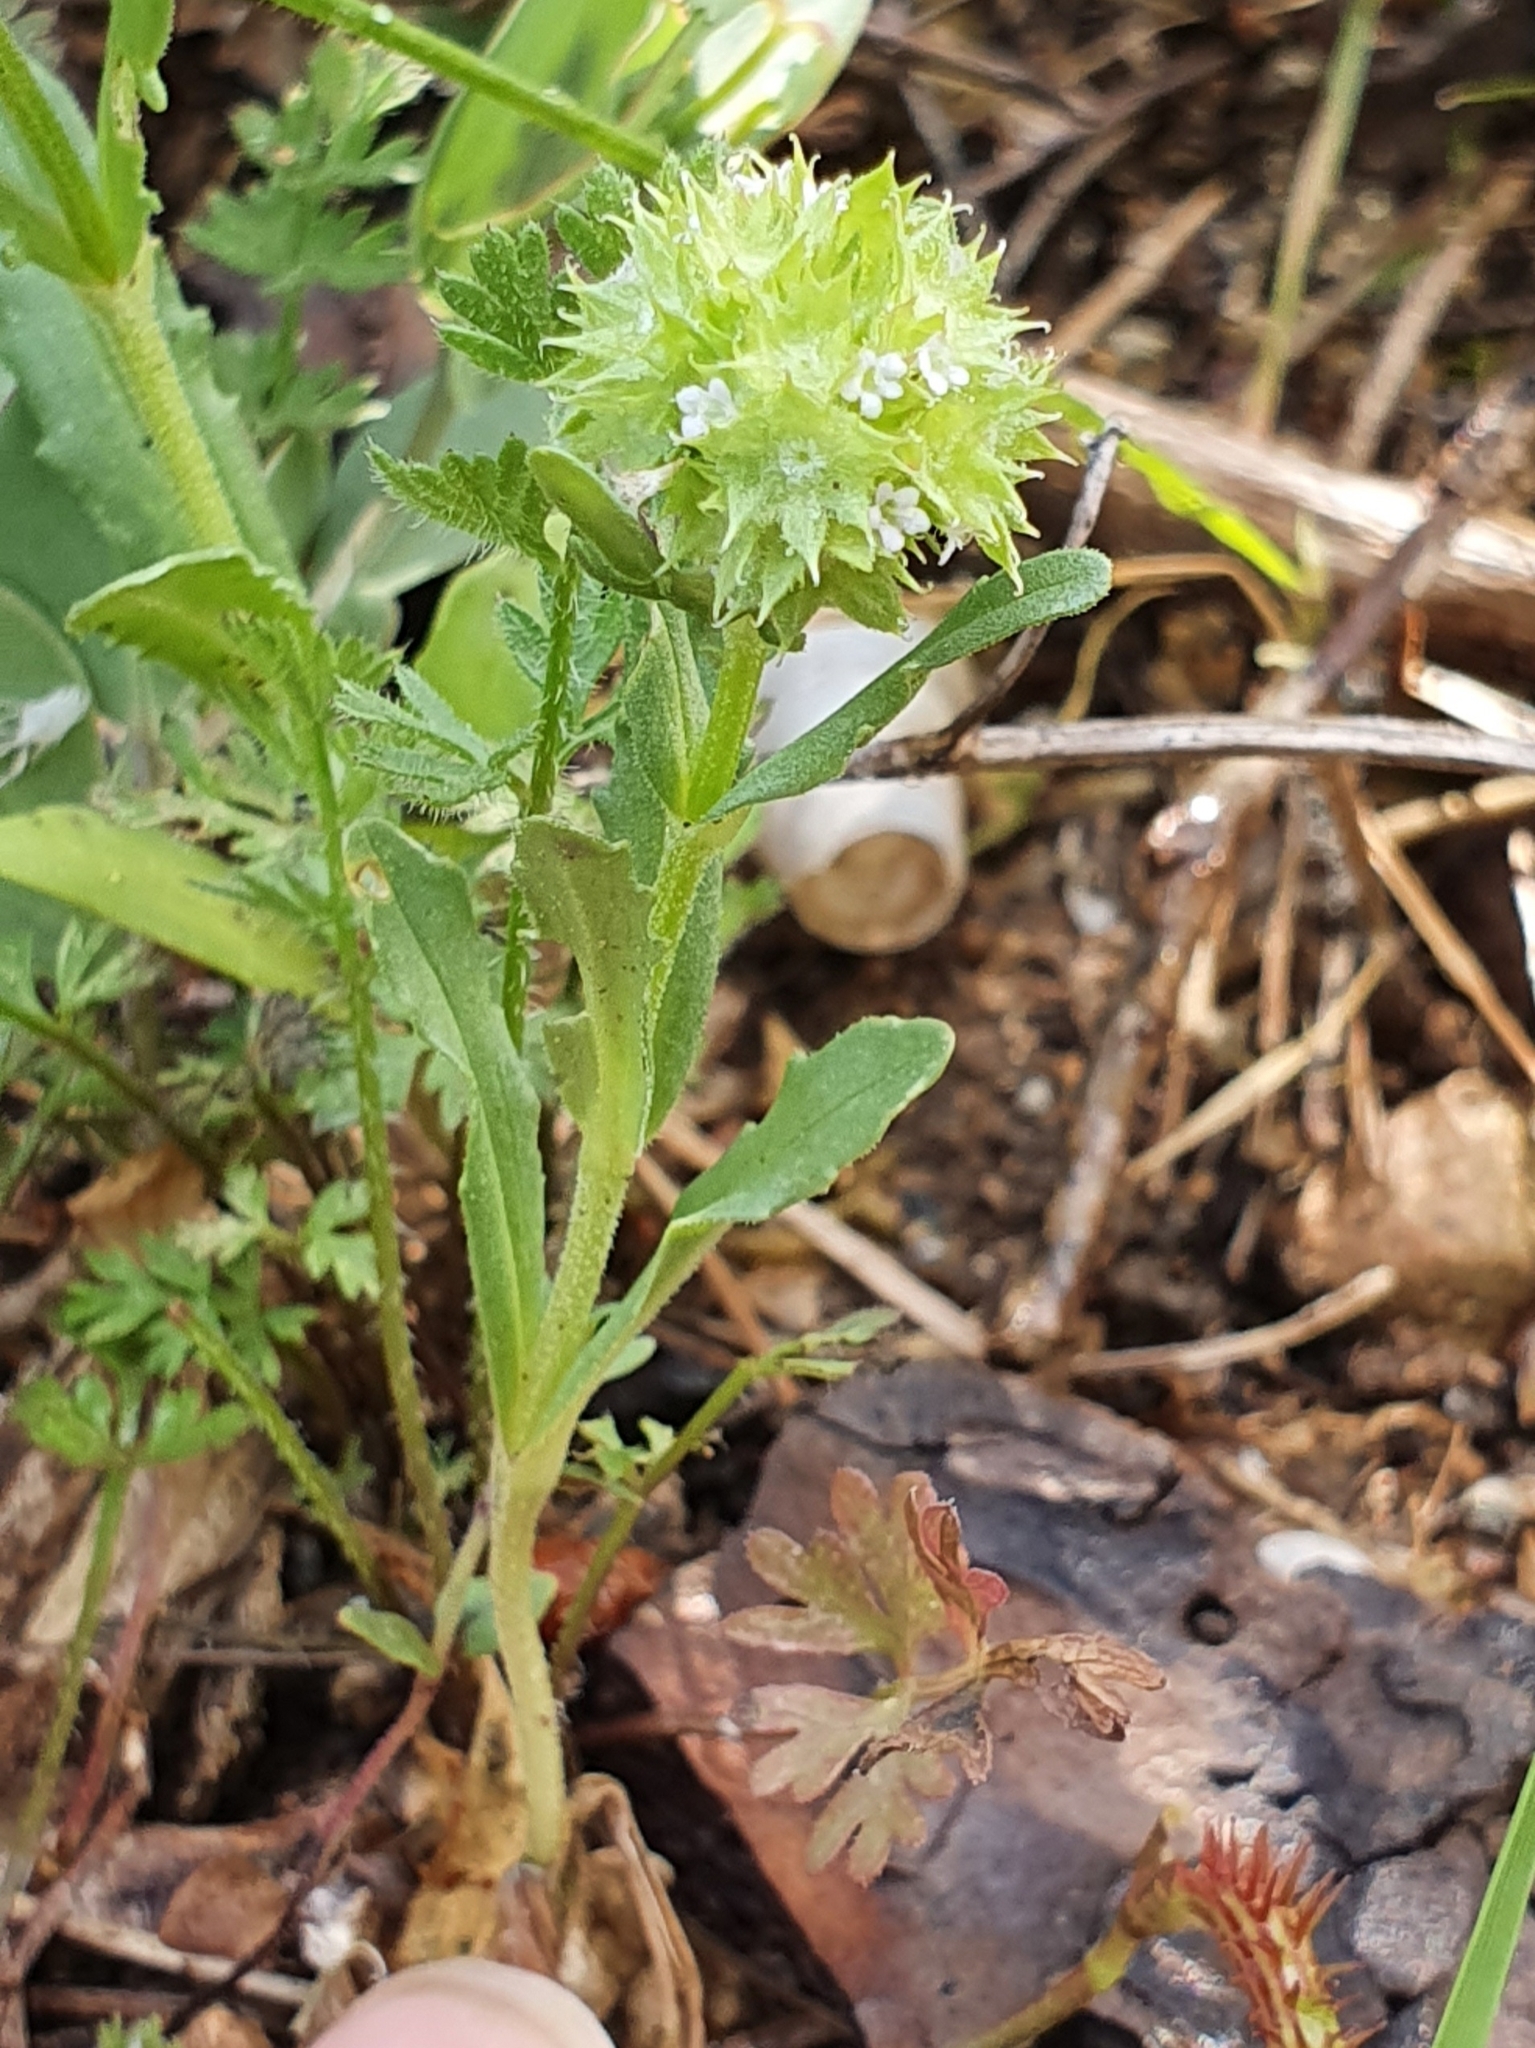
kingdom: Plantae
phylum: Tracheophyta
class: Magnoliopsida
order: Dipsacales
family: Caprifoliaceae
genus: Valerianella
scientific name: Valerianella discoidea
